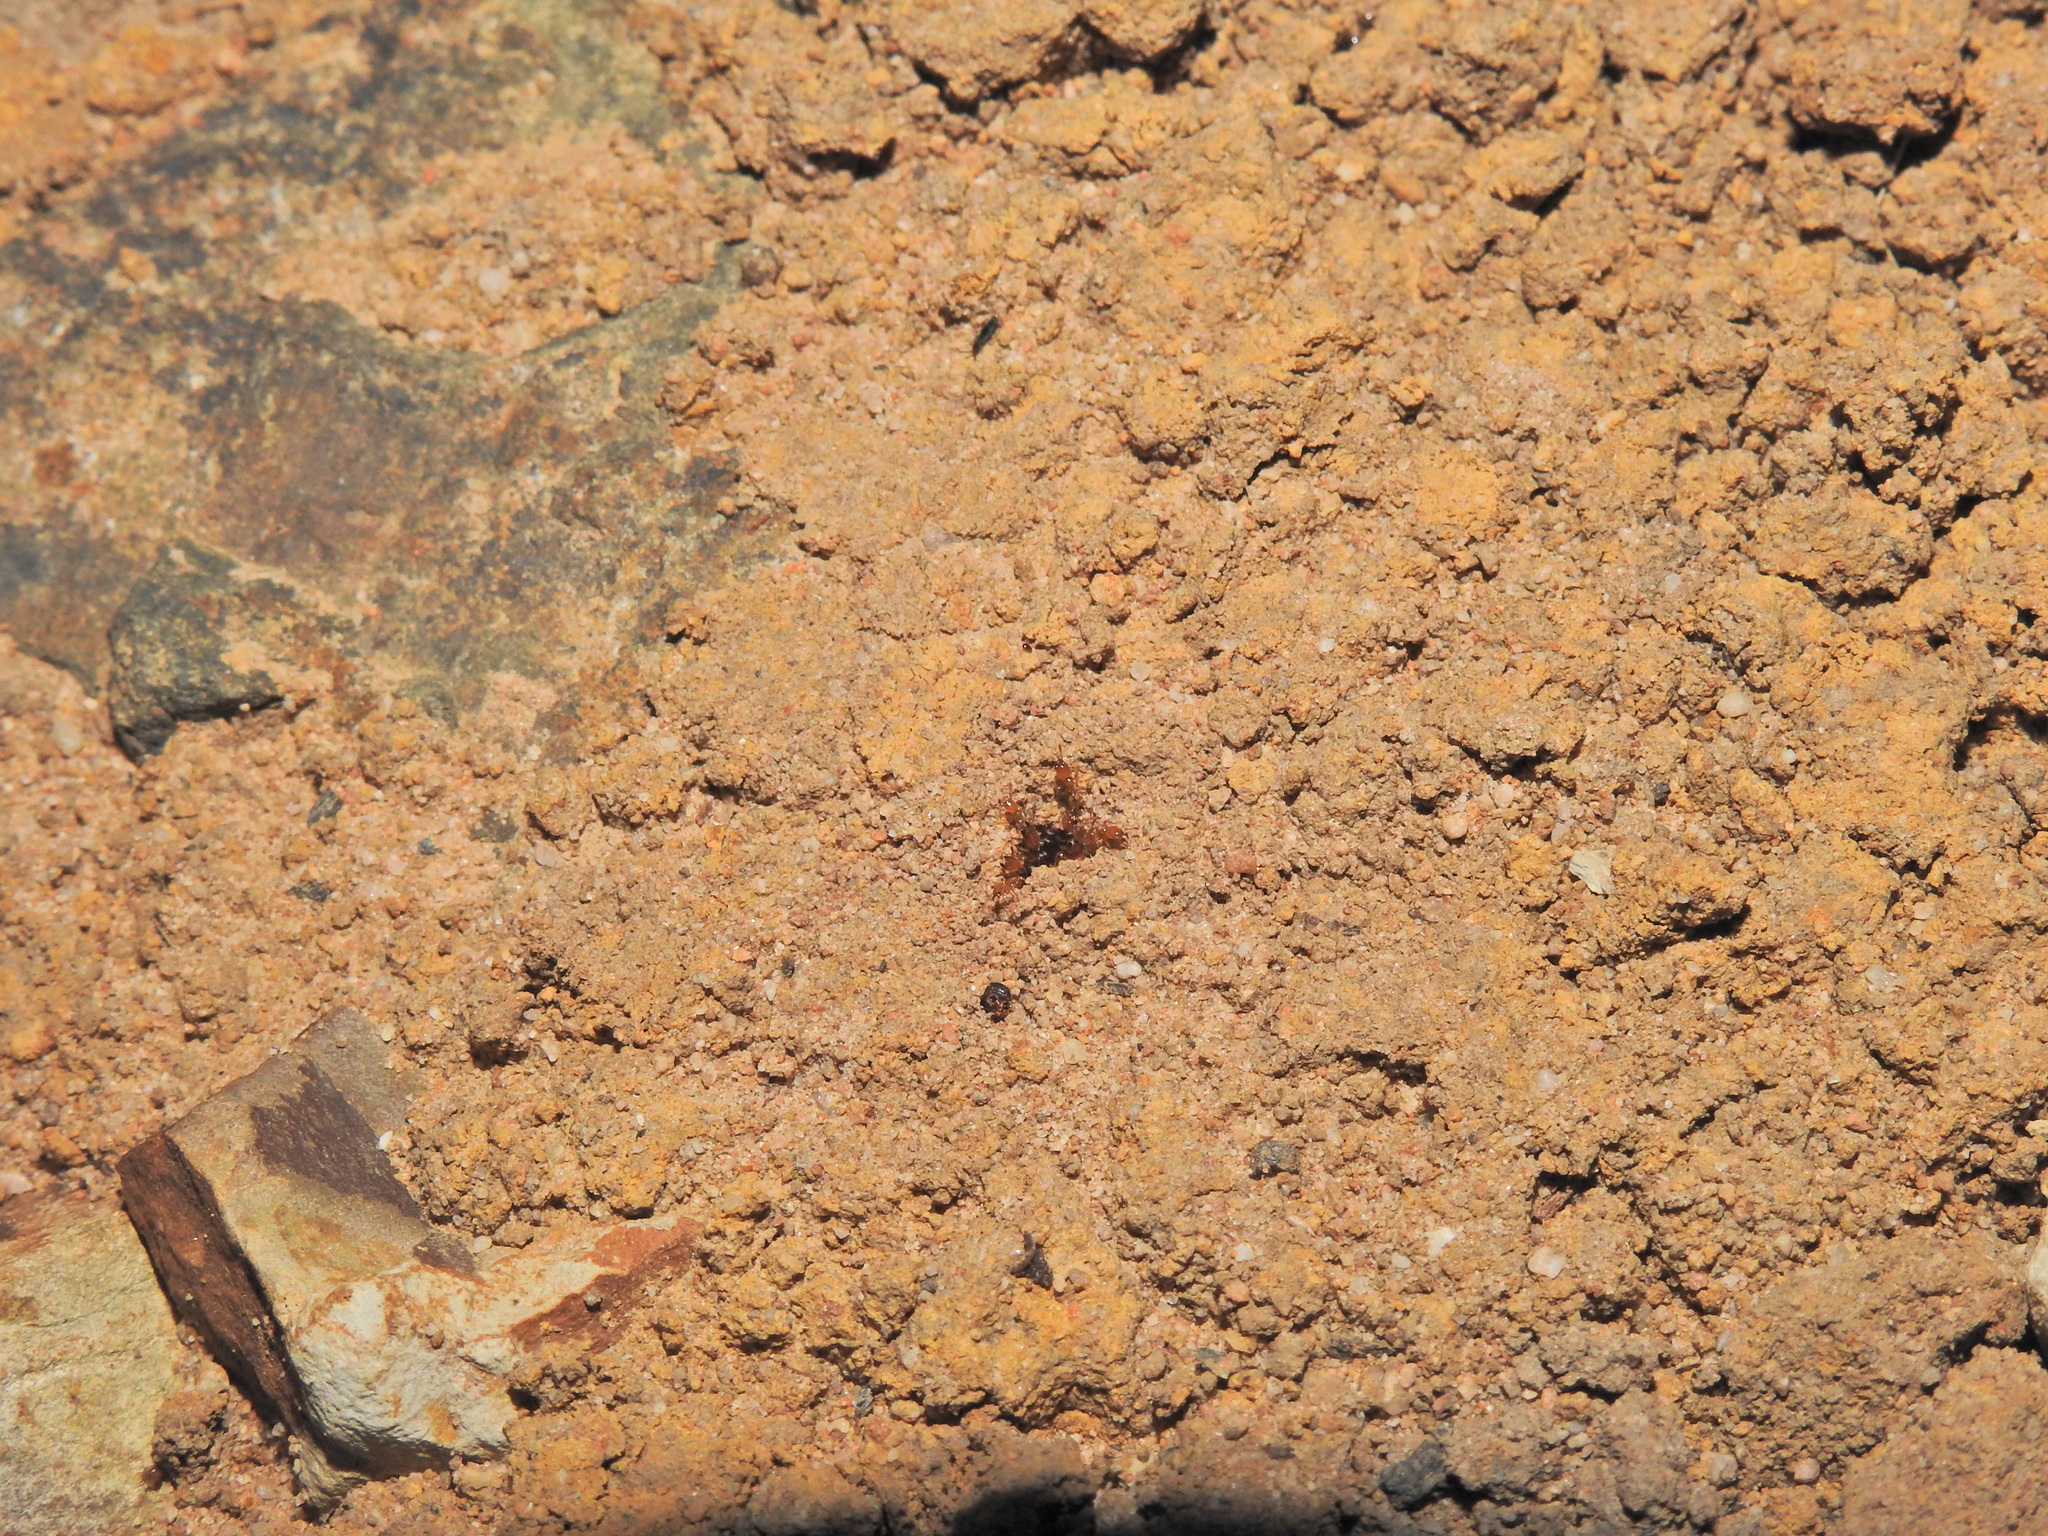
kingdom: Animalia
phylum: Arthropoda
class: Insecta
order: Hymenoptera
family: Formicidae
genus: Pheidole
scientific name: Pheidole
